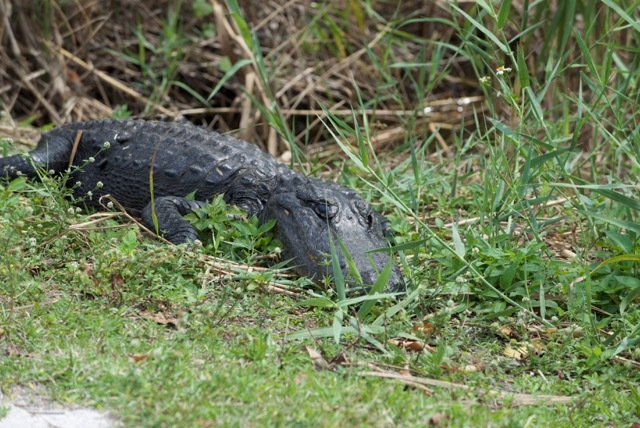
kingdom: Animalia
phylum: Chordata
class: Crocodylia
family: Alligatoridae
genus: Alligator
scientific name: Alligator mississippiensis
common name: American alligator
